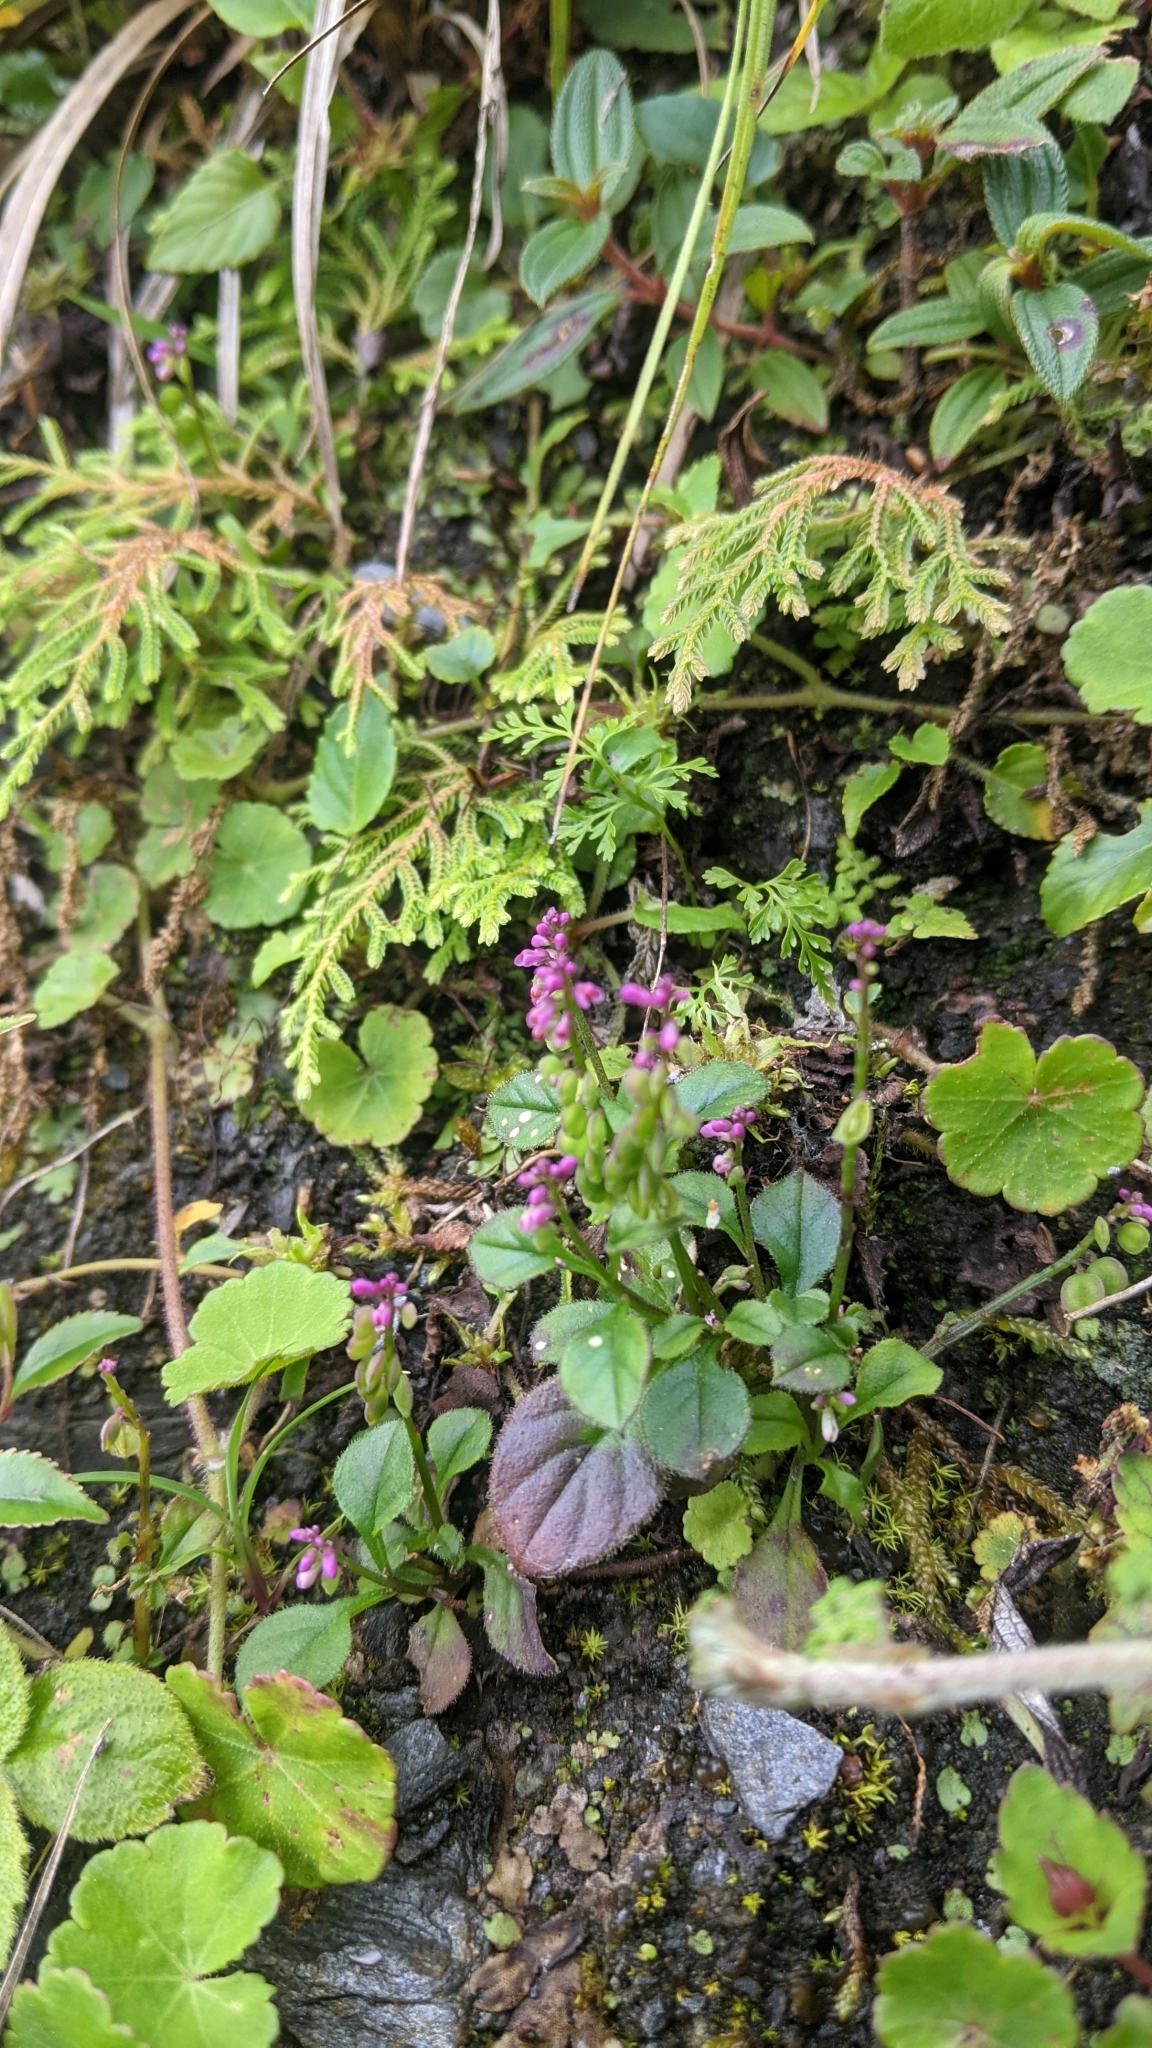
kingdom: Plantae
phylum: Tracheophyta
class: Magnoliopsida
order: Fabales
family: Polygalaceae
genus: Polygala
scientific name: Polygala tatarinowii
